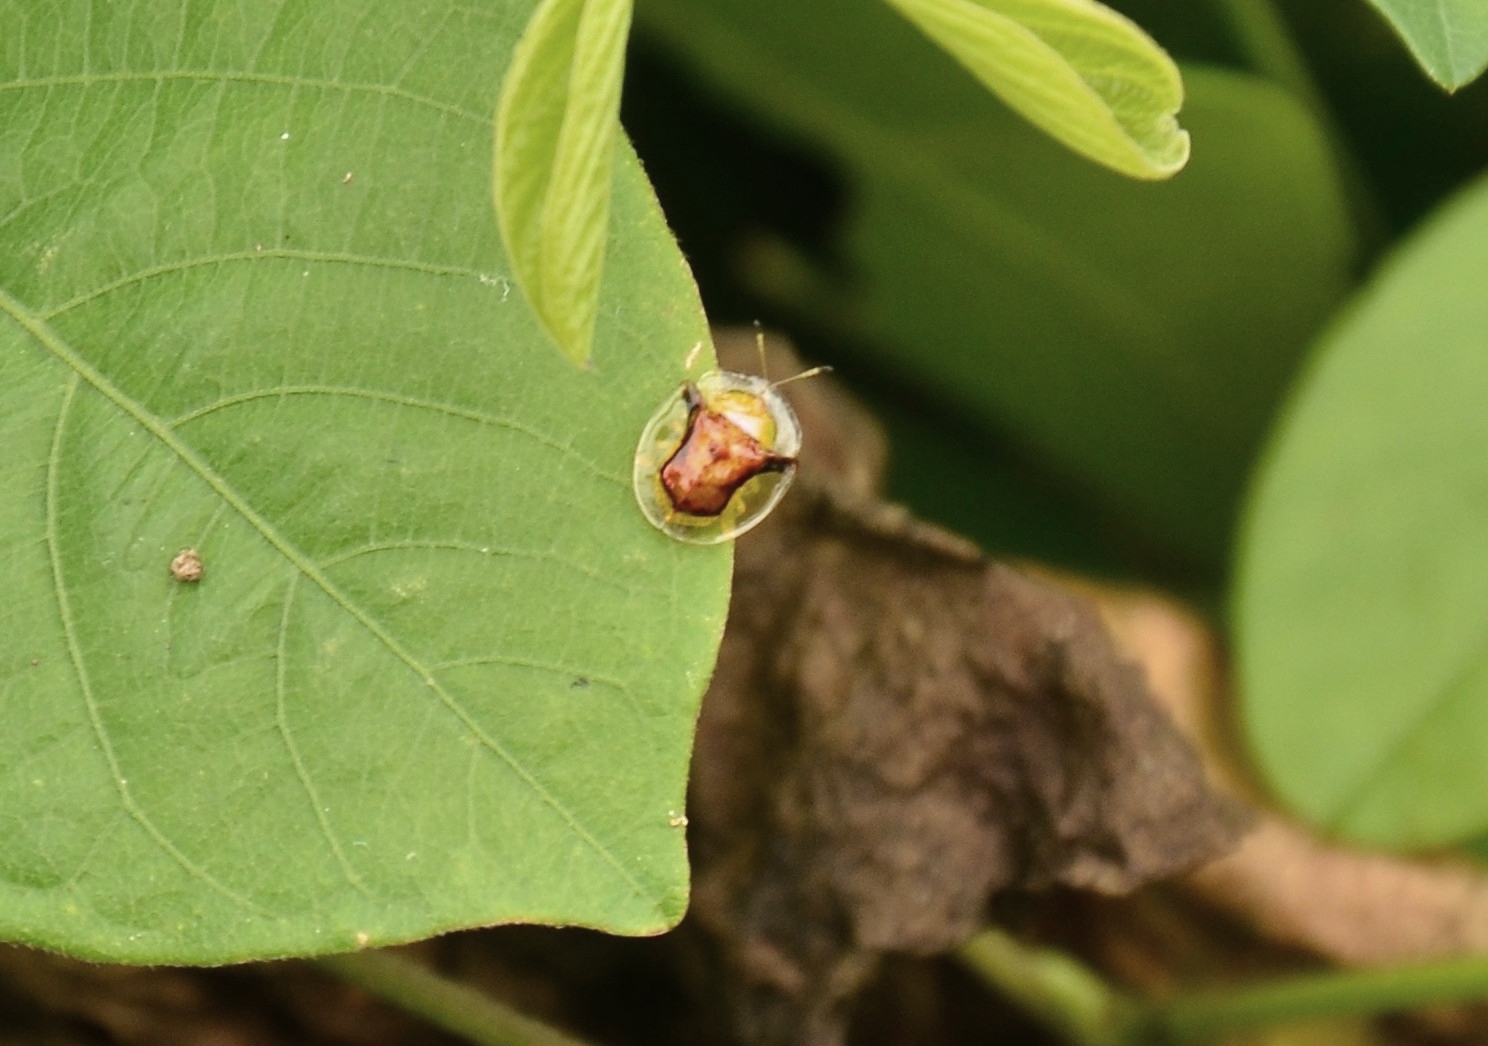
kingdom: Animalia
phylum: Arthropoda
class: Insecta
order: Coleoptera
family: Chrysomelidae
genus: Aspidimorpha
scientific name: Aspidimorpha furcata
